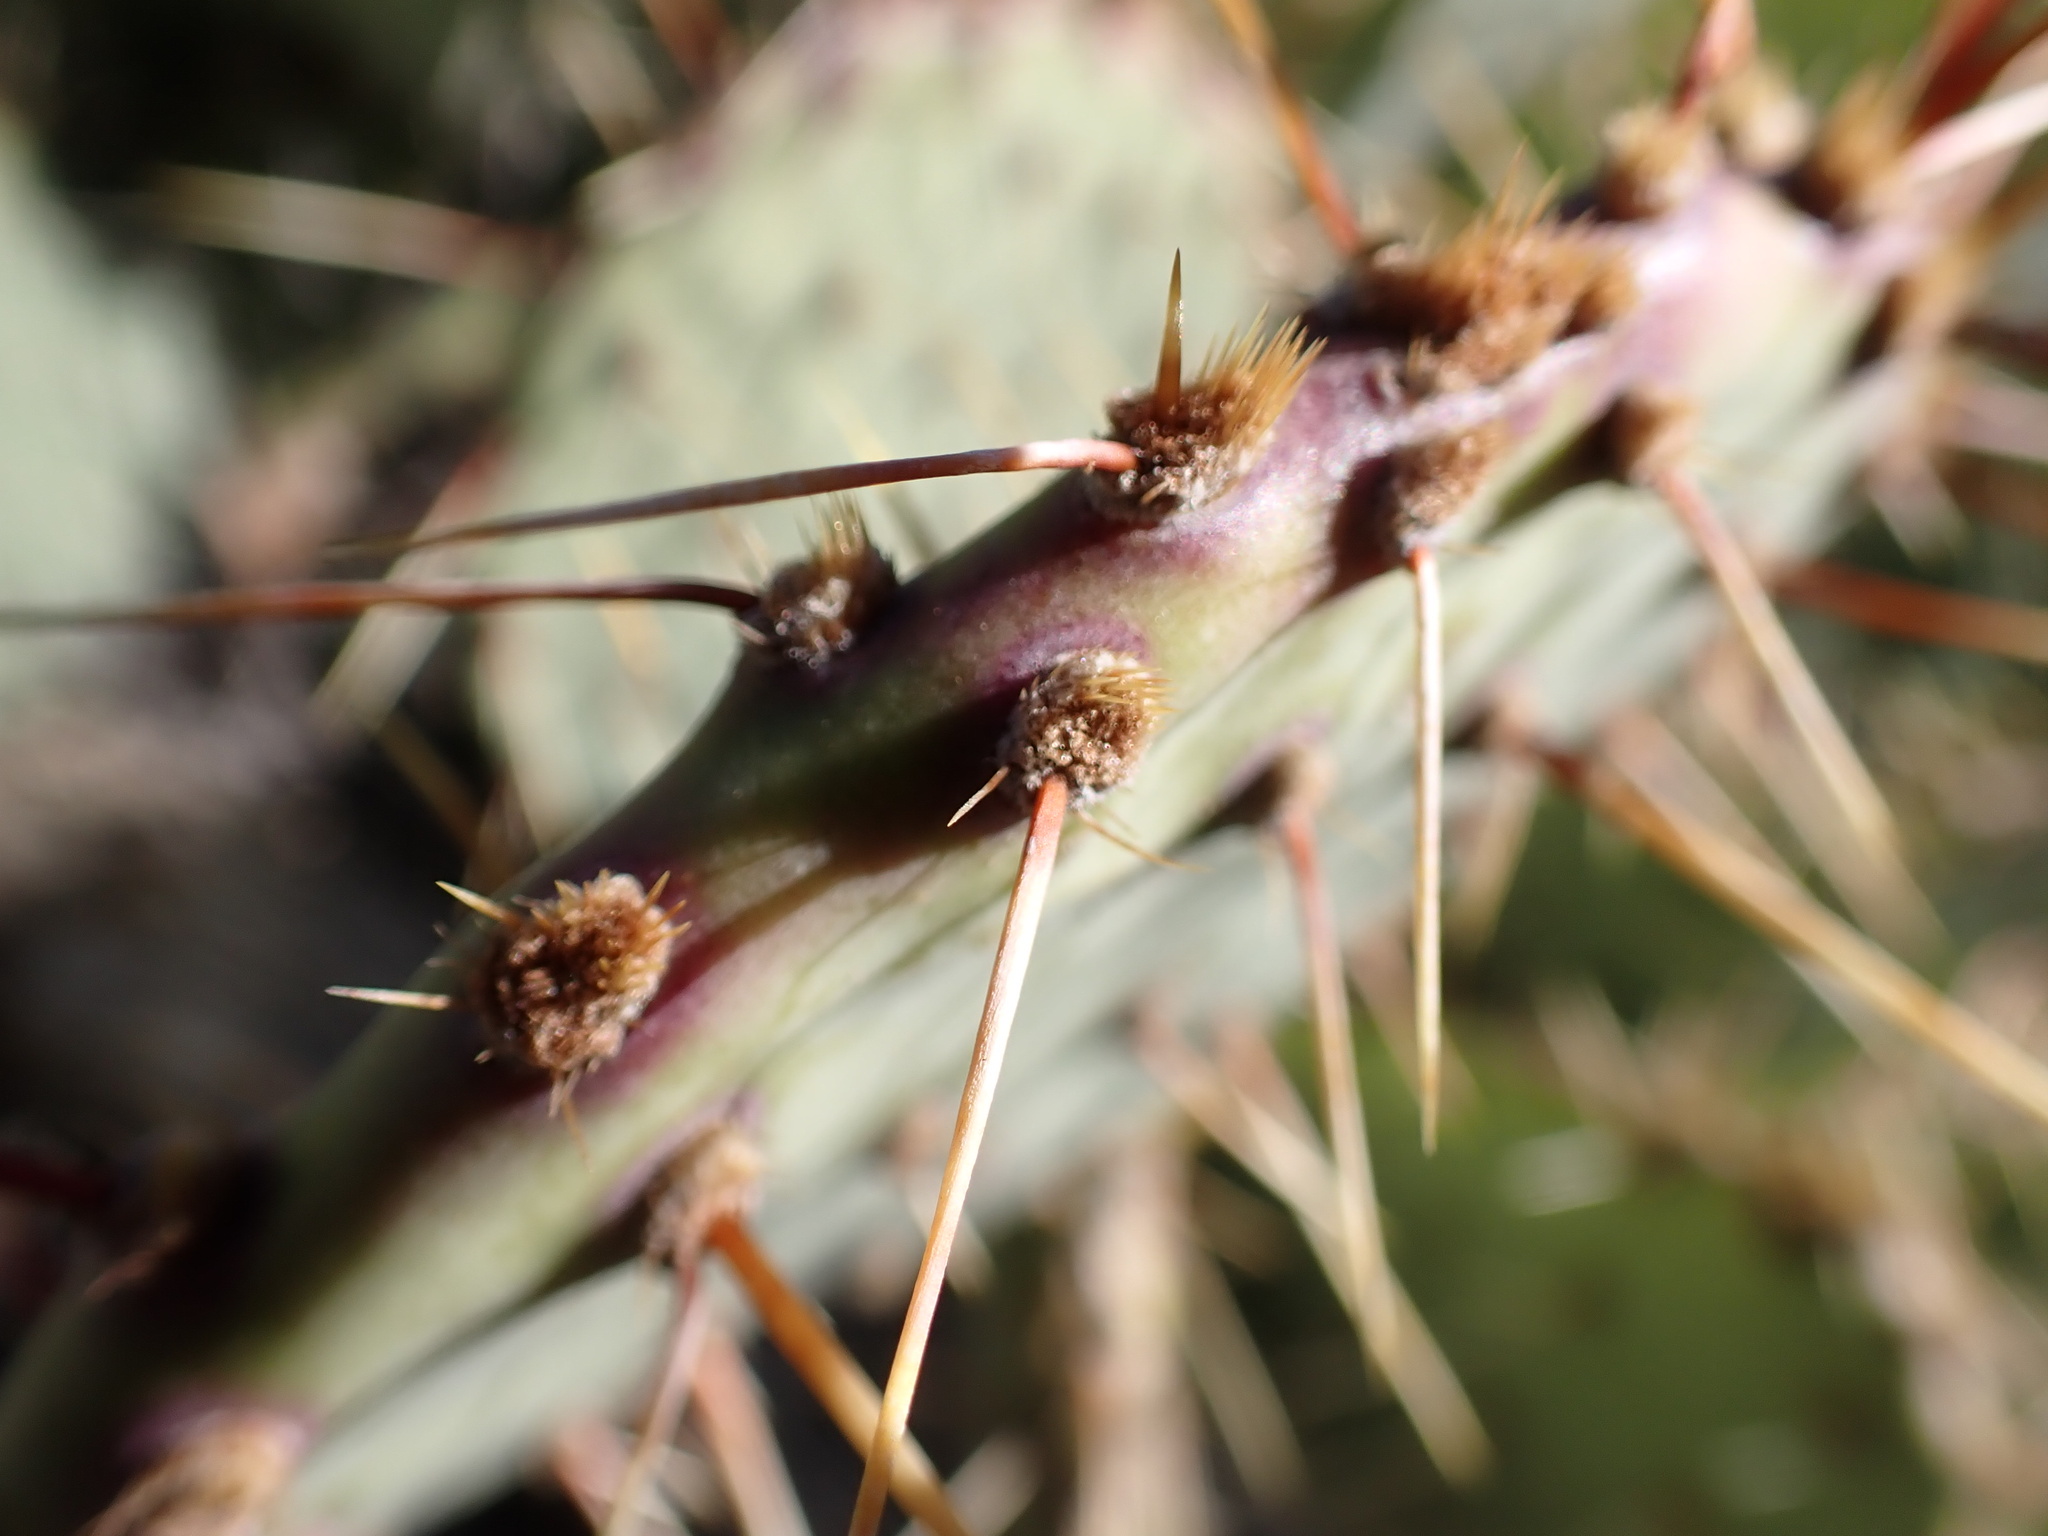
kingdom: Plantae
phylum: Tracheophyta
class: Magnoliopsida
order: Caryophyllales
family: Cactaceae
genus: Opuntia
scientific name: Opuntia phaeacantha
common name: New mexico prickly-pear
